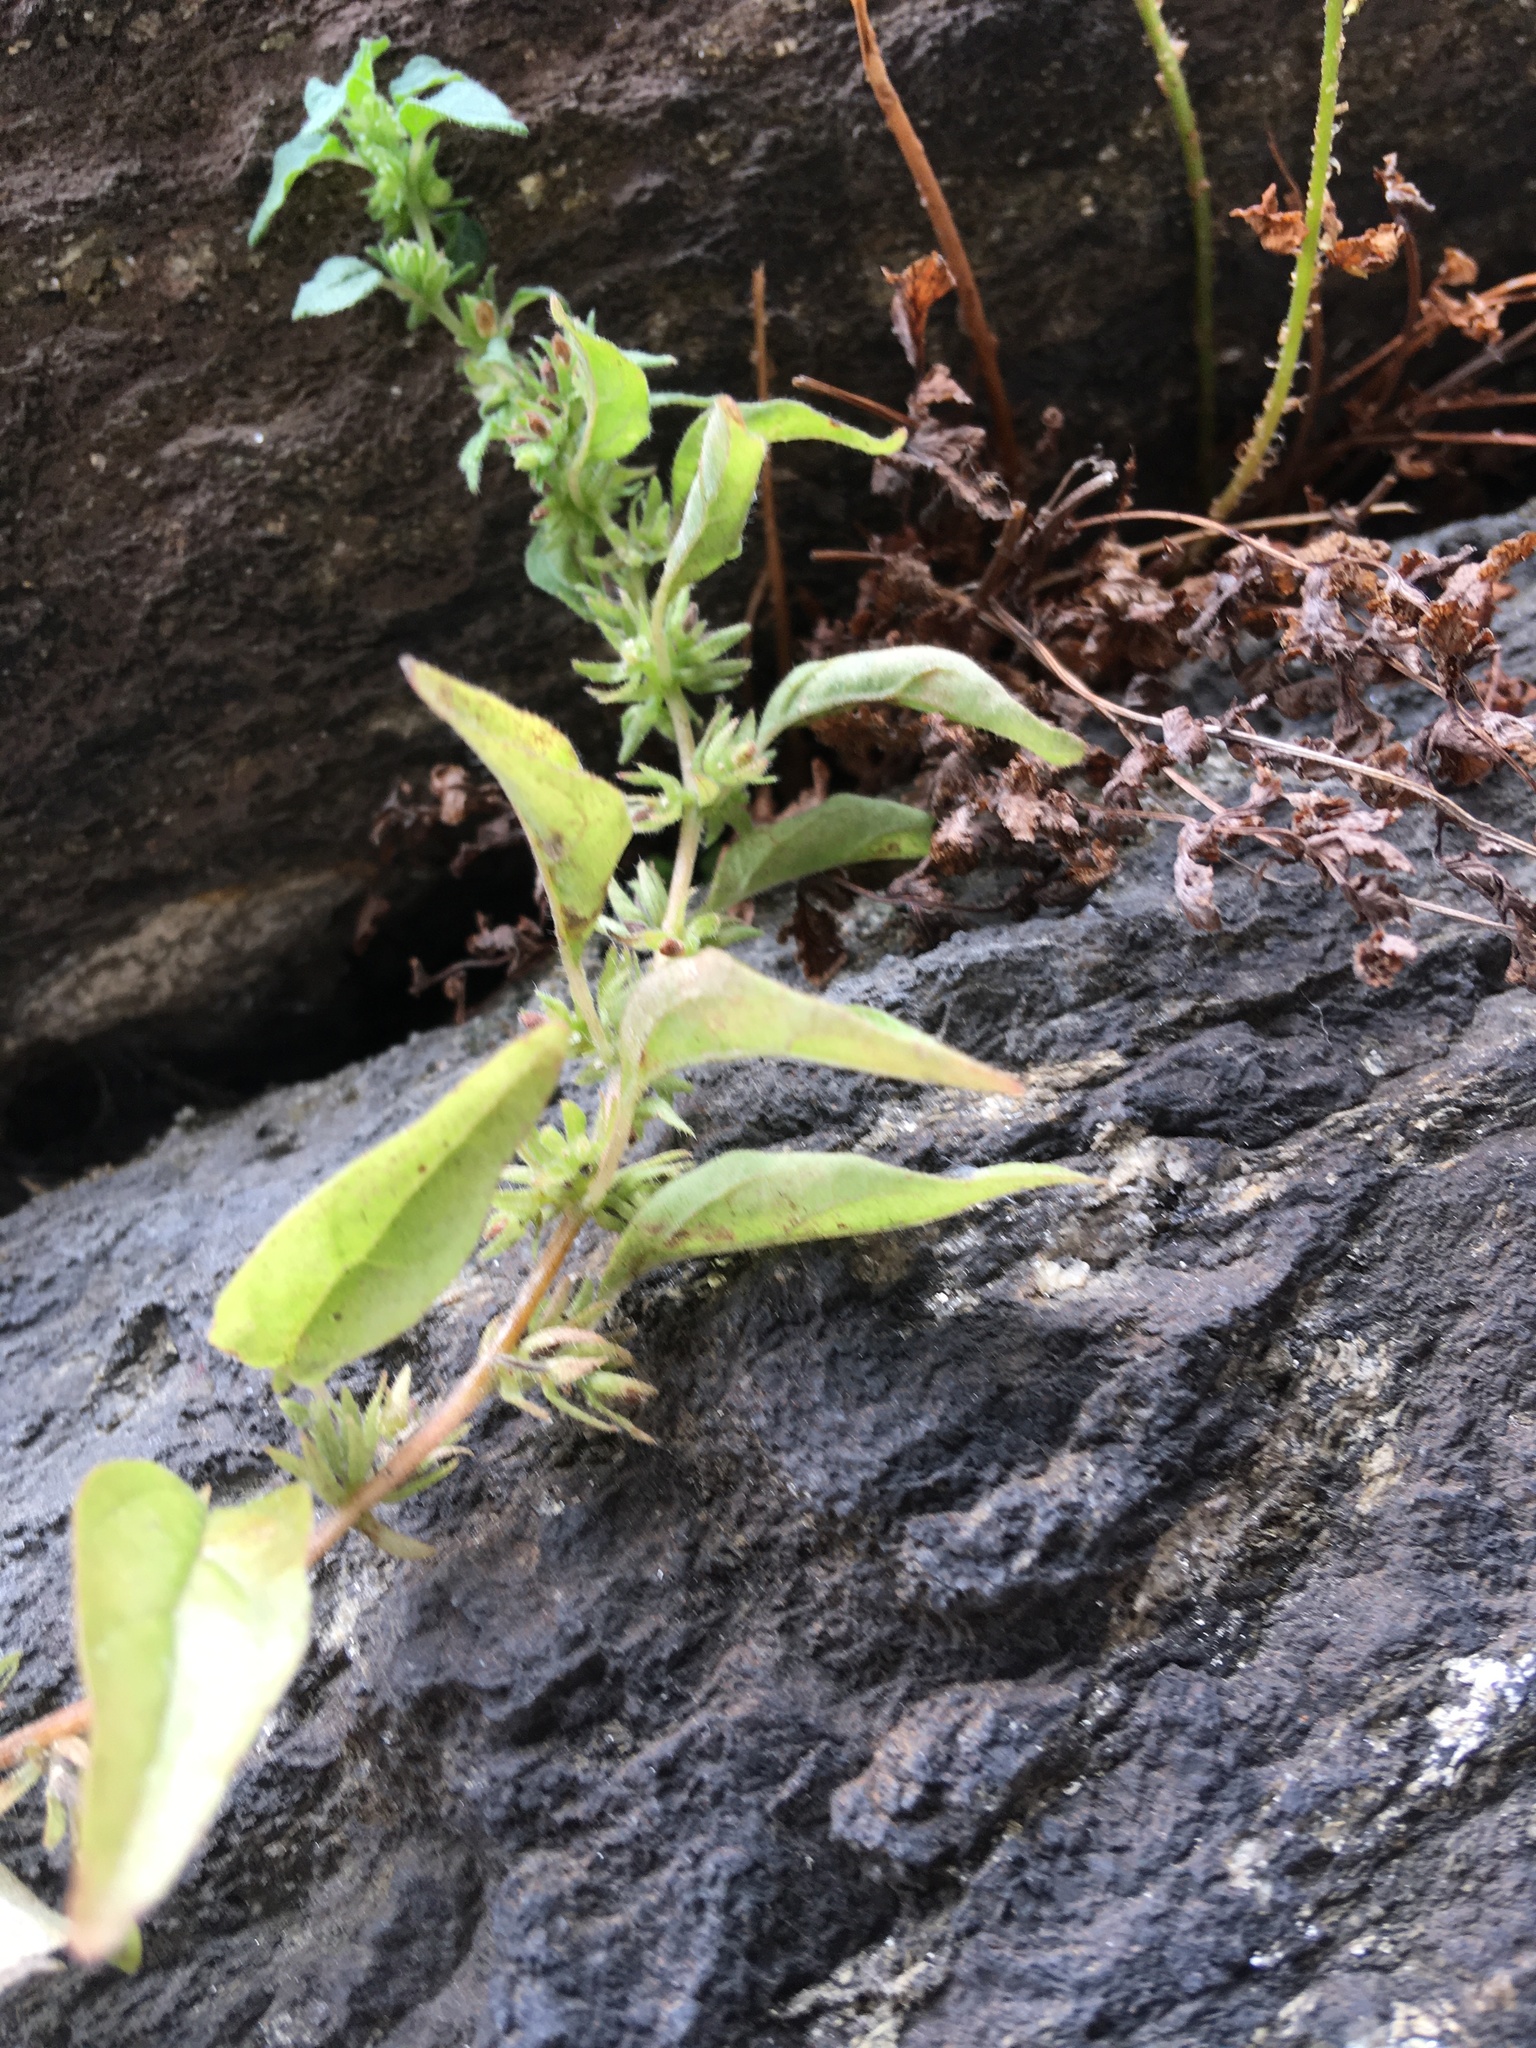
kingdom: Plantae
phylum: Tracheophyta
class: Magnoliopsida
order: Rosales
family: Urticaceae
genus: Parietaria
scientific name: Parietaria pensylvanica
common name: Pennsylvania pellitory
